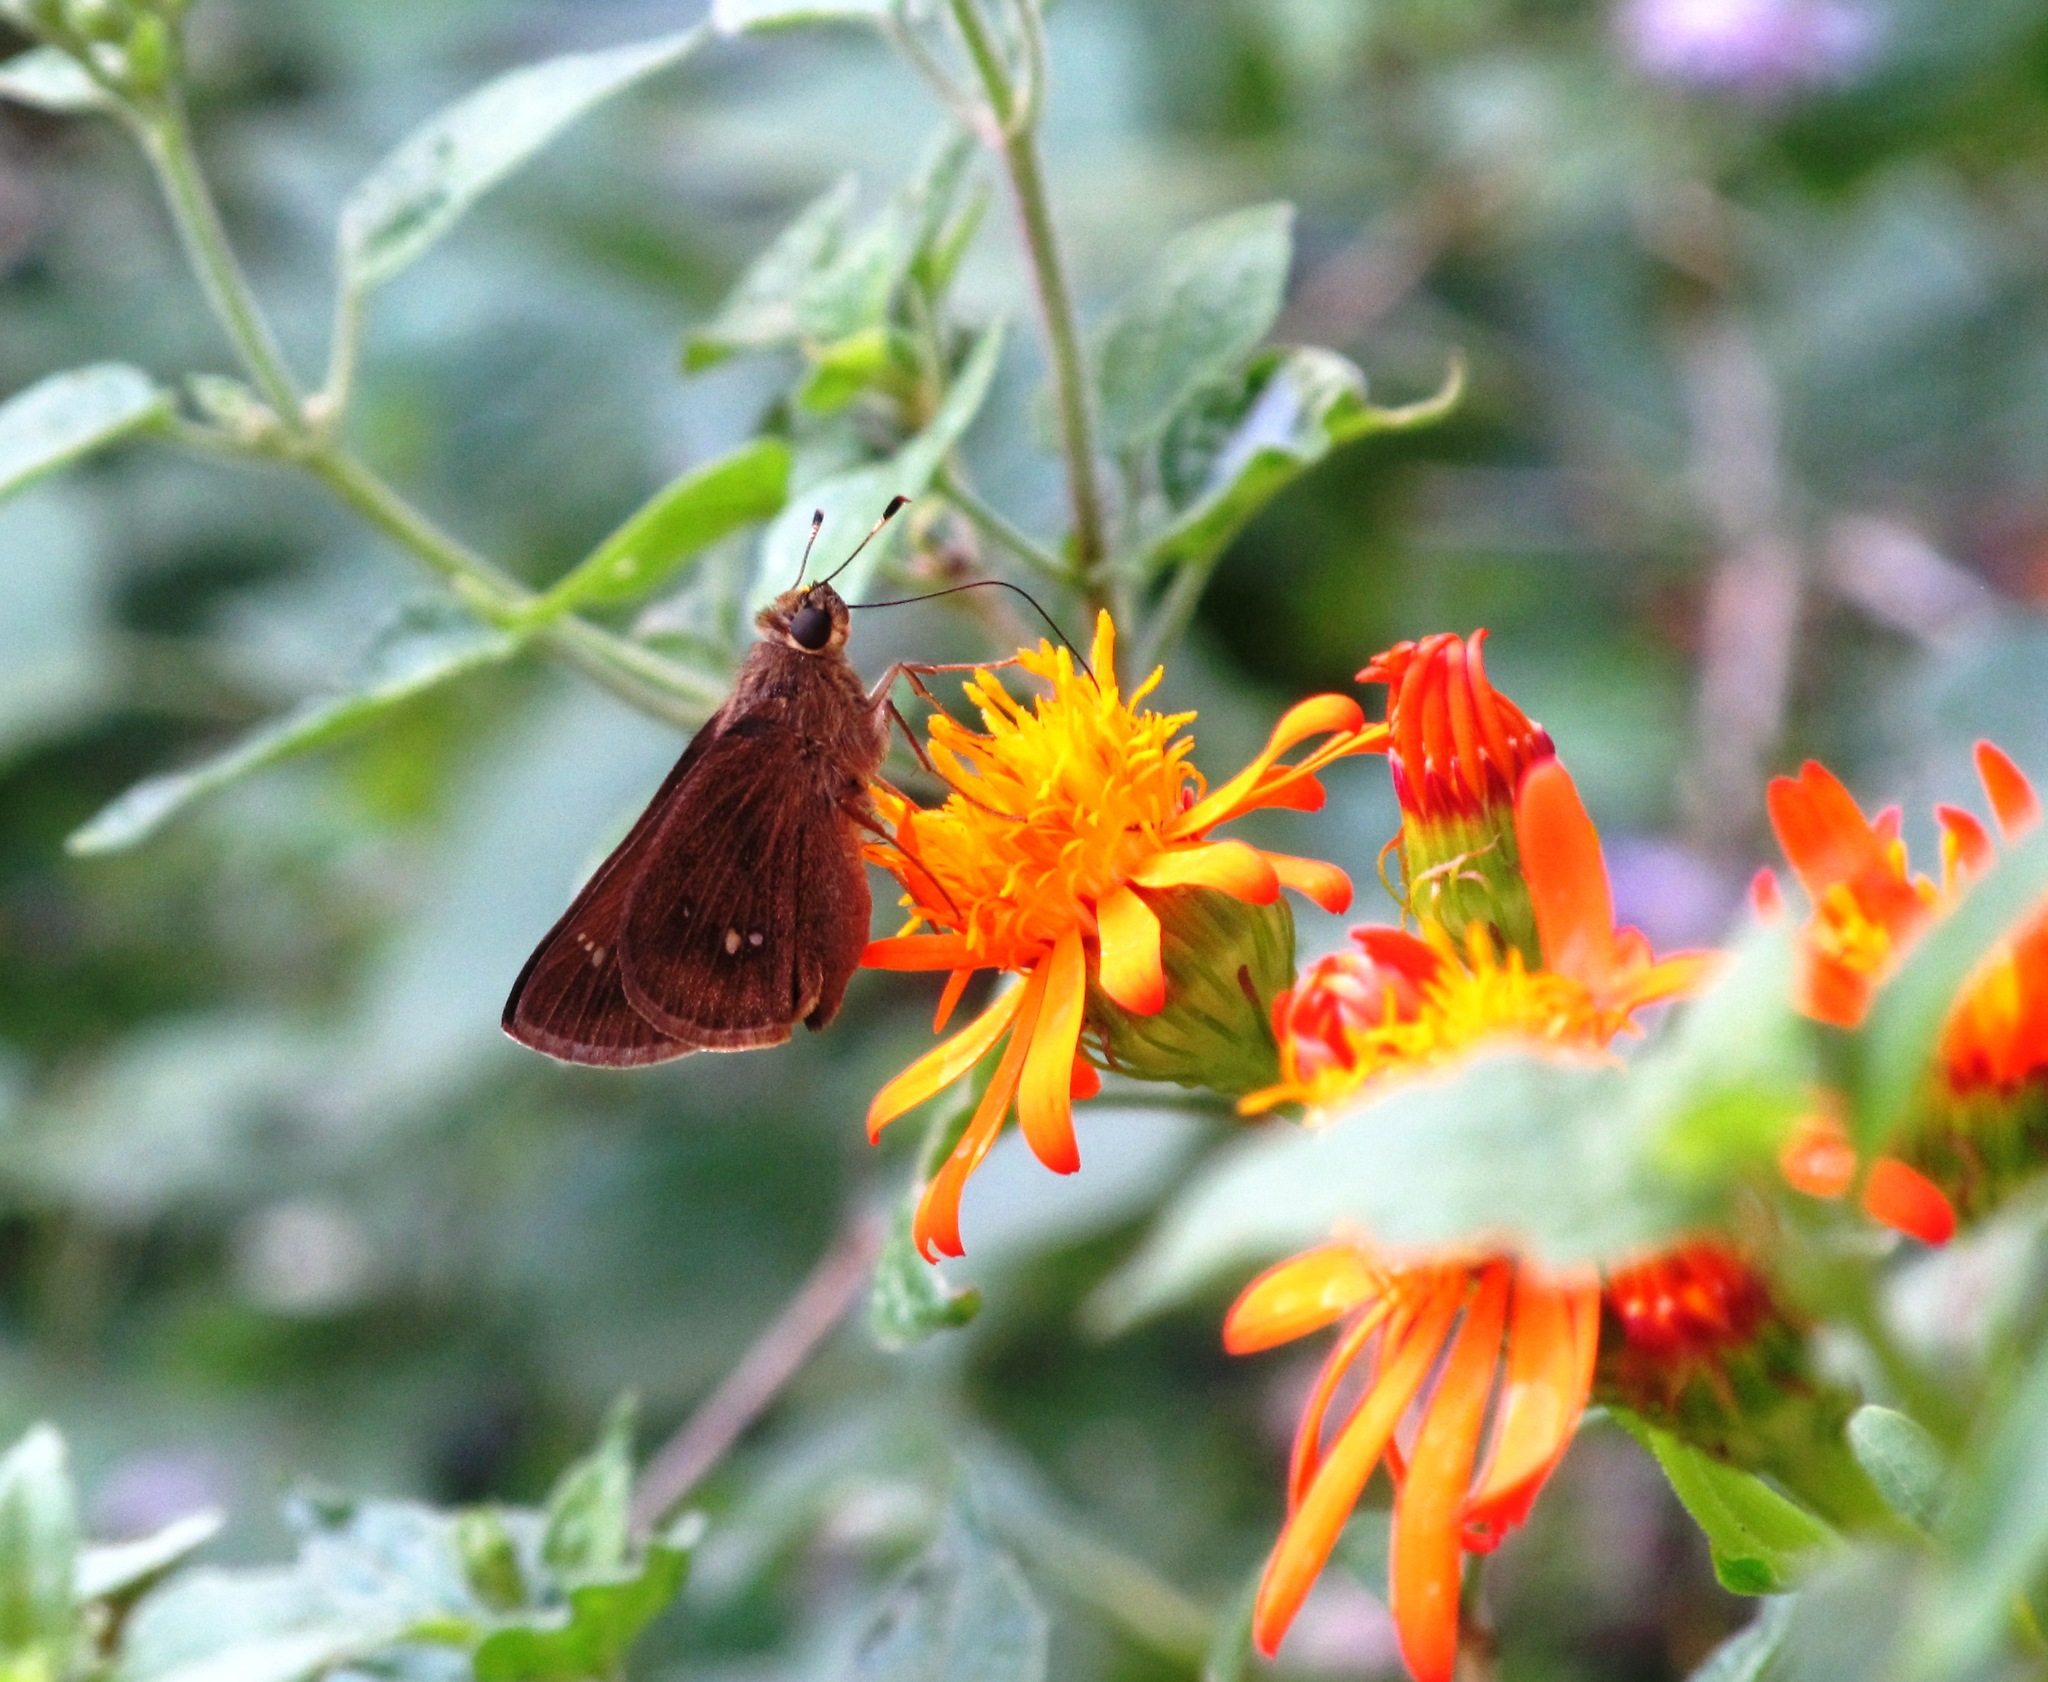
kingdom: Animalia
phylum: Arthropoda
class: Insecta
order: Lepidoptera
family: Hesperiidae
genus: Decinea
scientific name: Decinea percosius
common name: Double-dotted skipper
